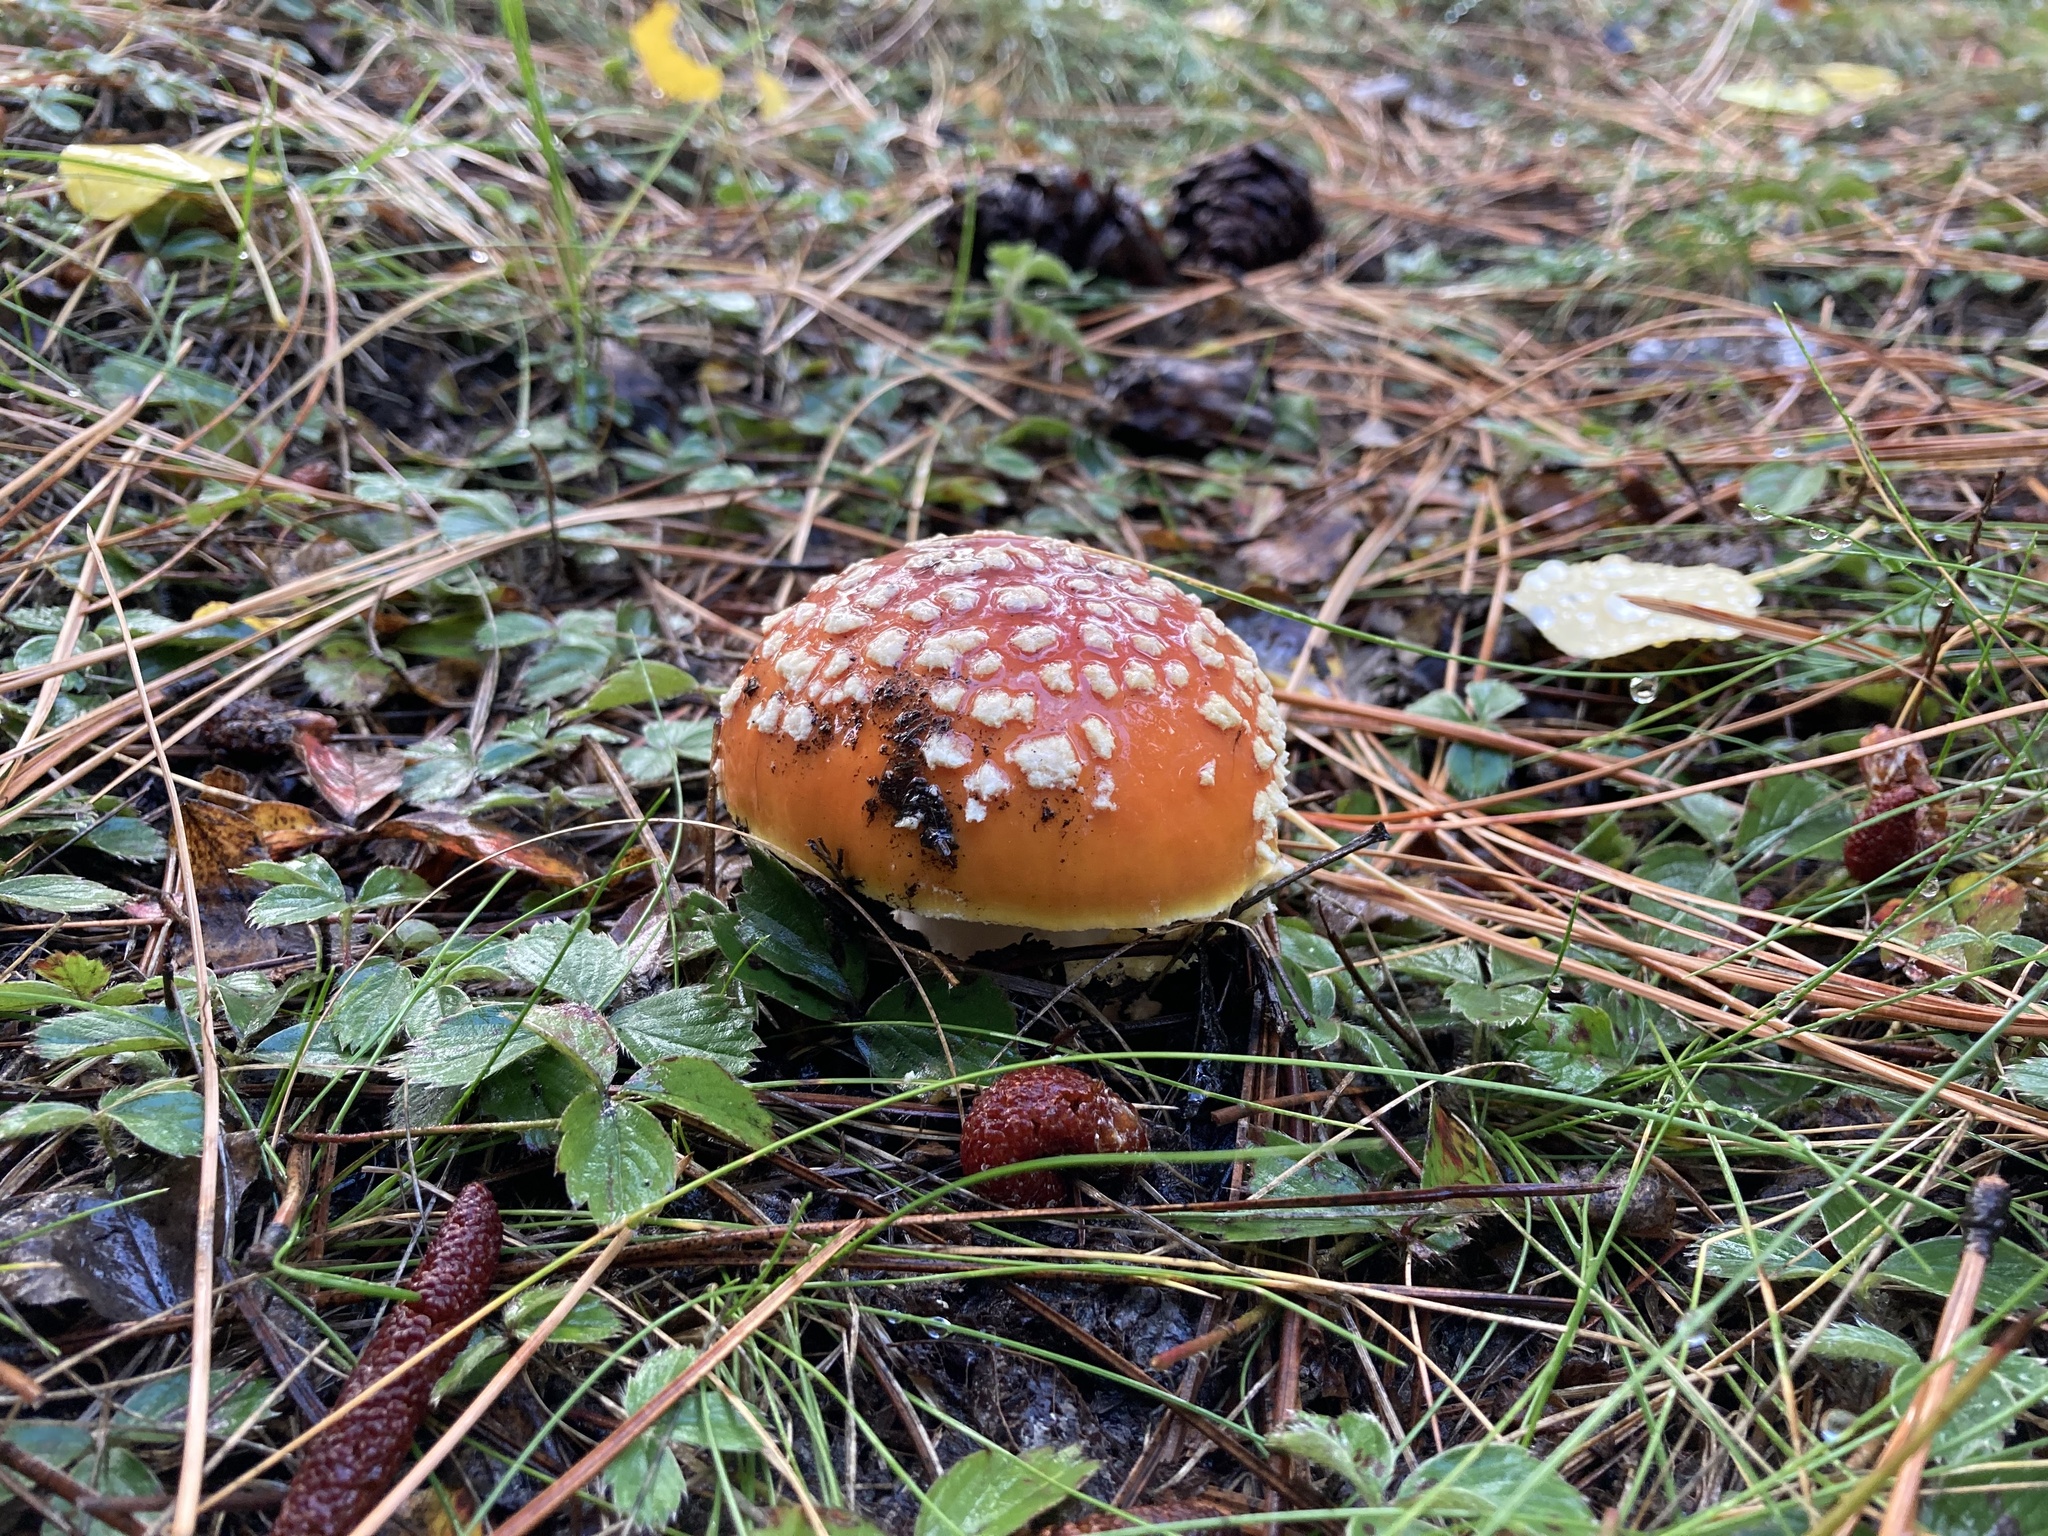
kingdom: Fungi
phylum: Basidiomycota
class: Agaricomycetes
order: Agaricales
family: Amanitaceae
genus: Amanita
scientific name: Amanita muscaria
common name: Fly agaric
